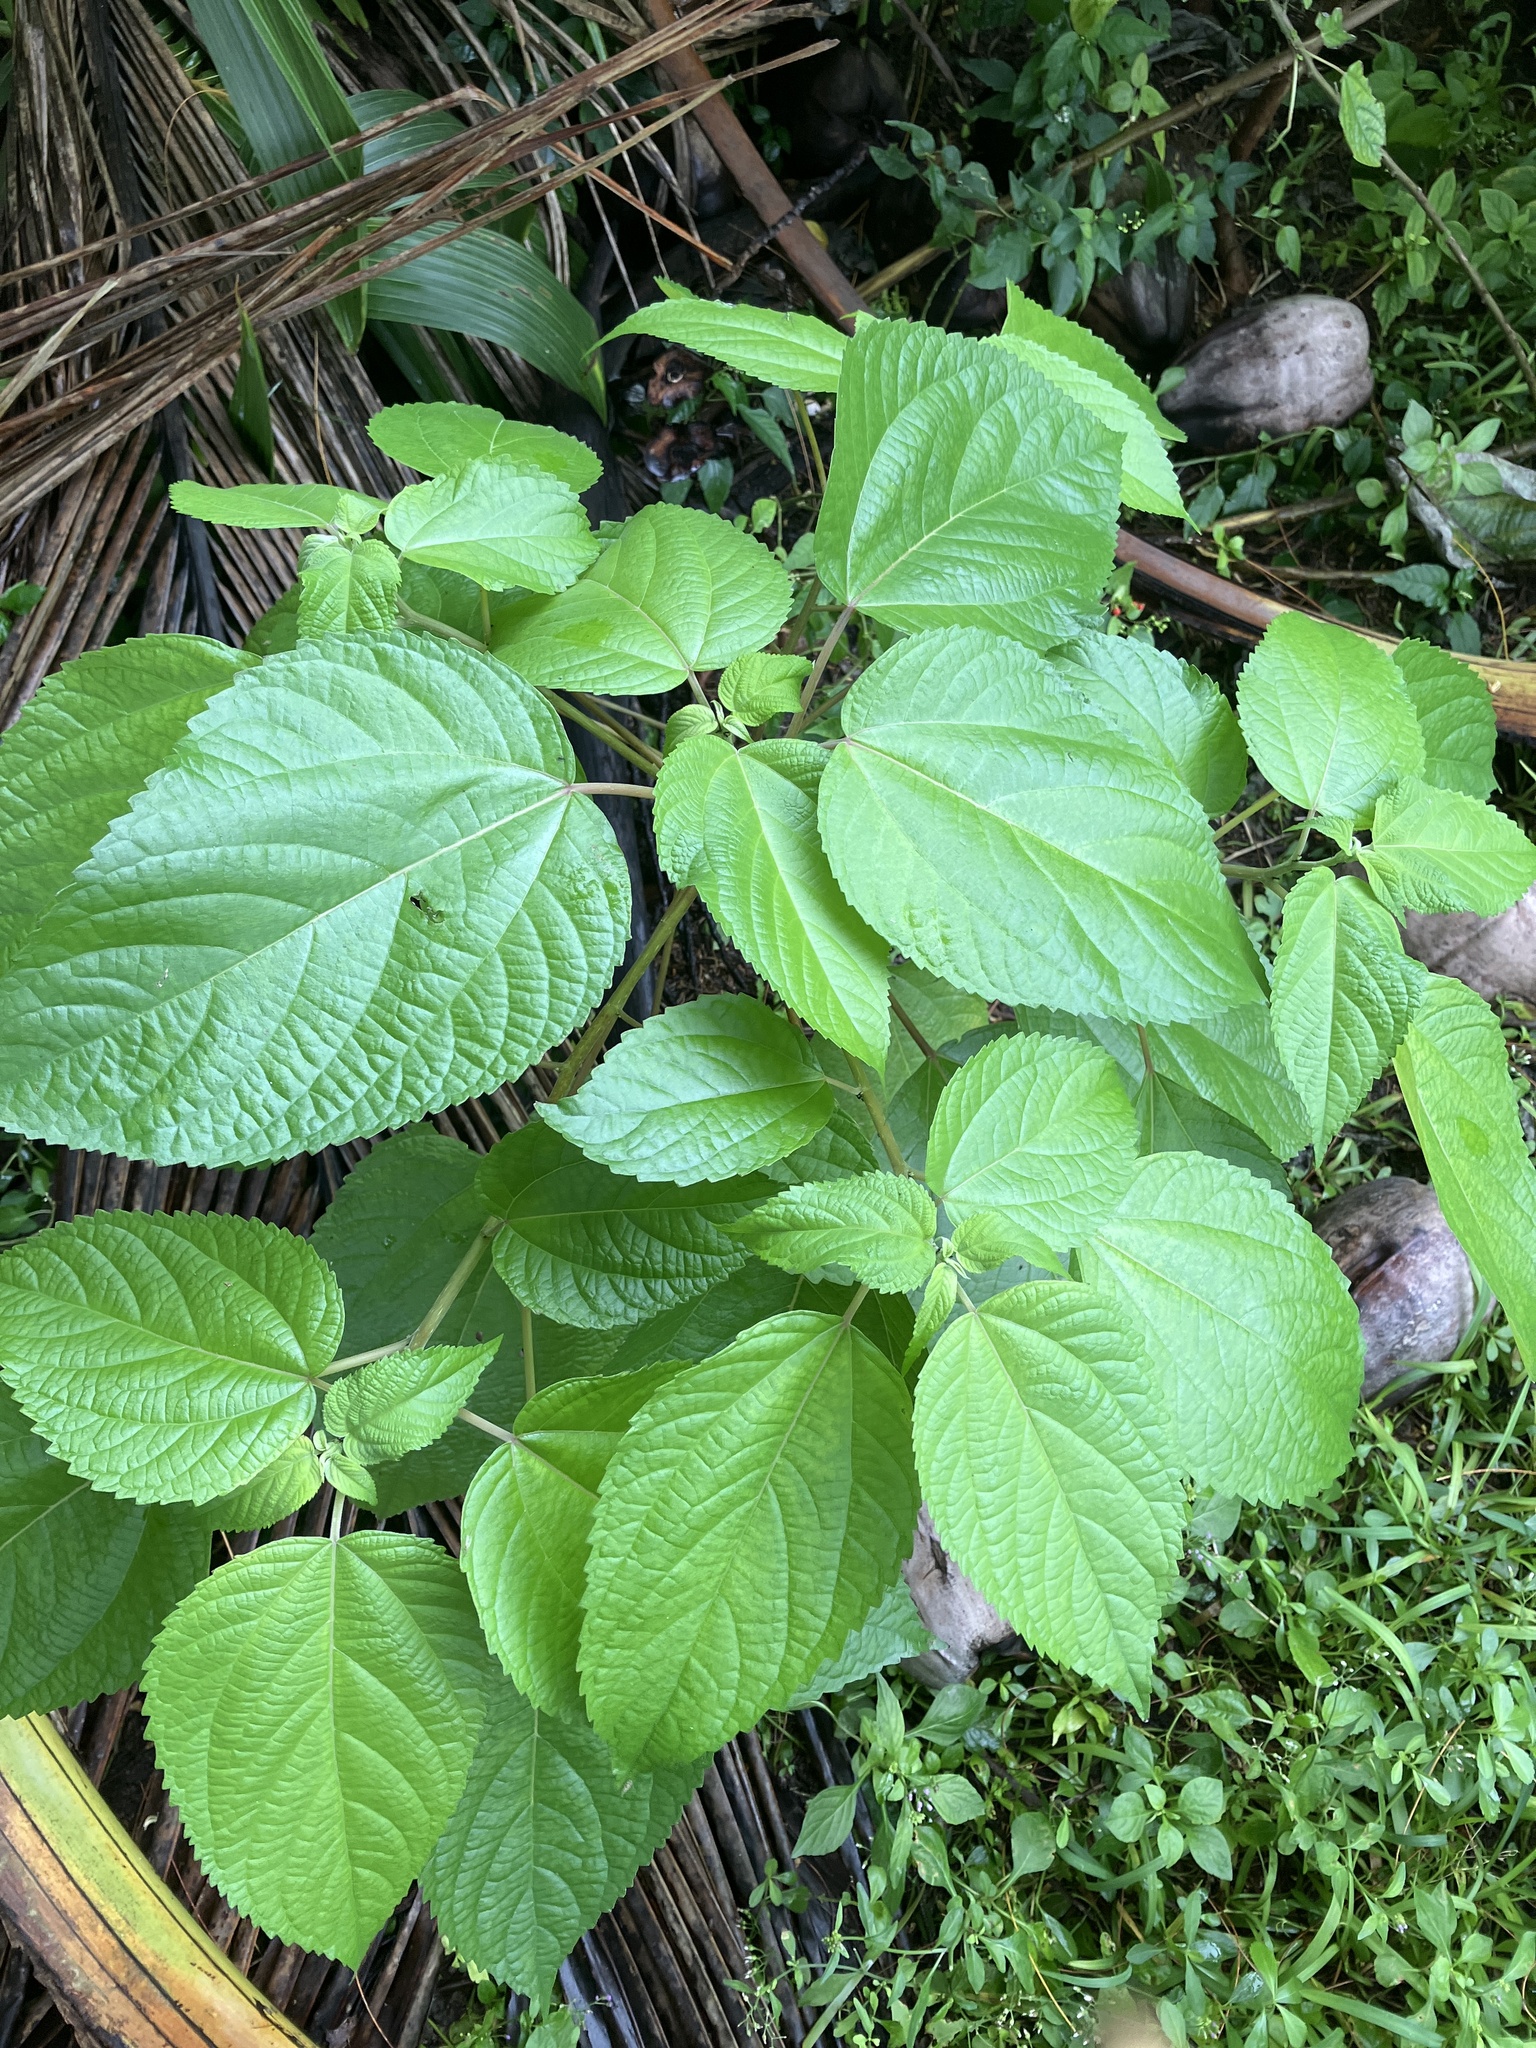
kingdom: Plantae
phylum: Tracheophyta
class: Magnoliopsida
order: Rosales
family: Urticaceae
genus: Pipturus
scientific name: Pipturus argenteus
